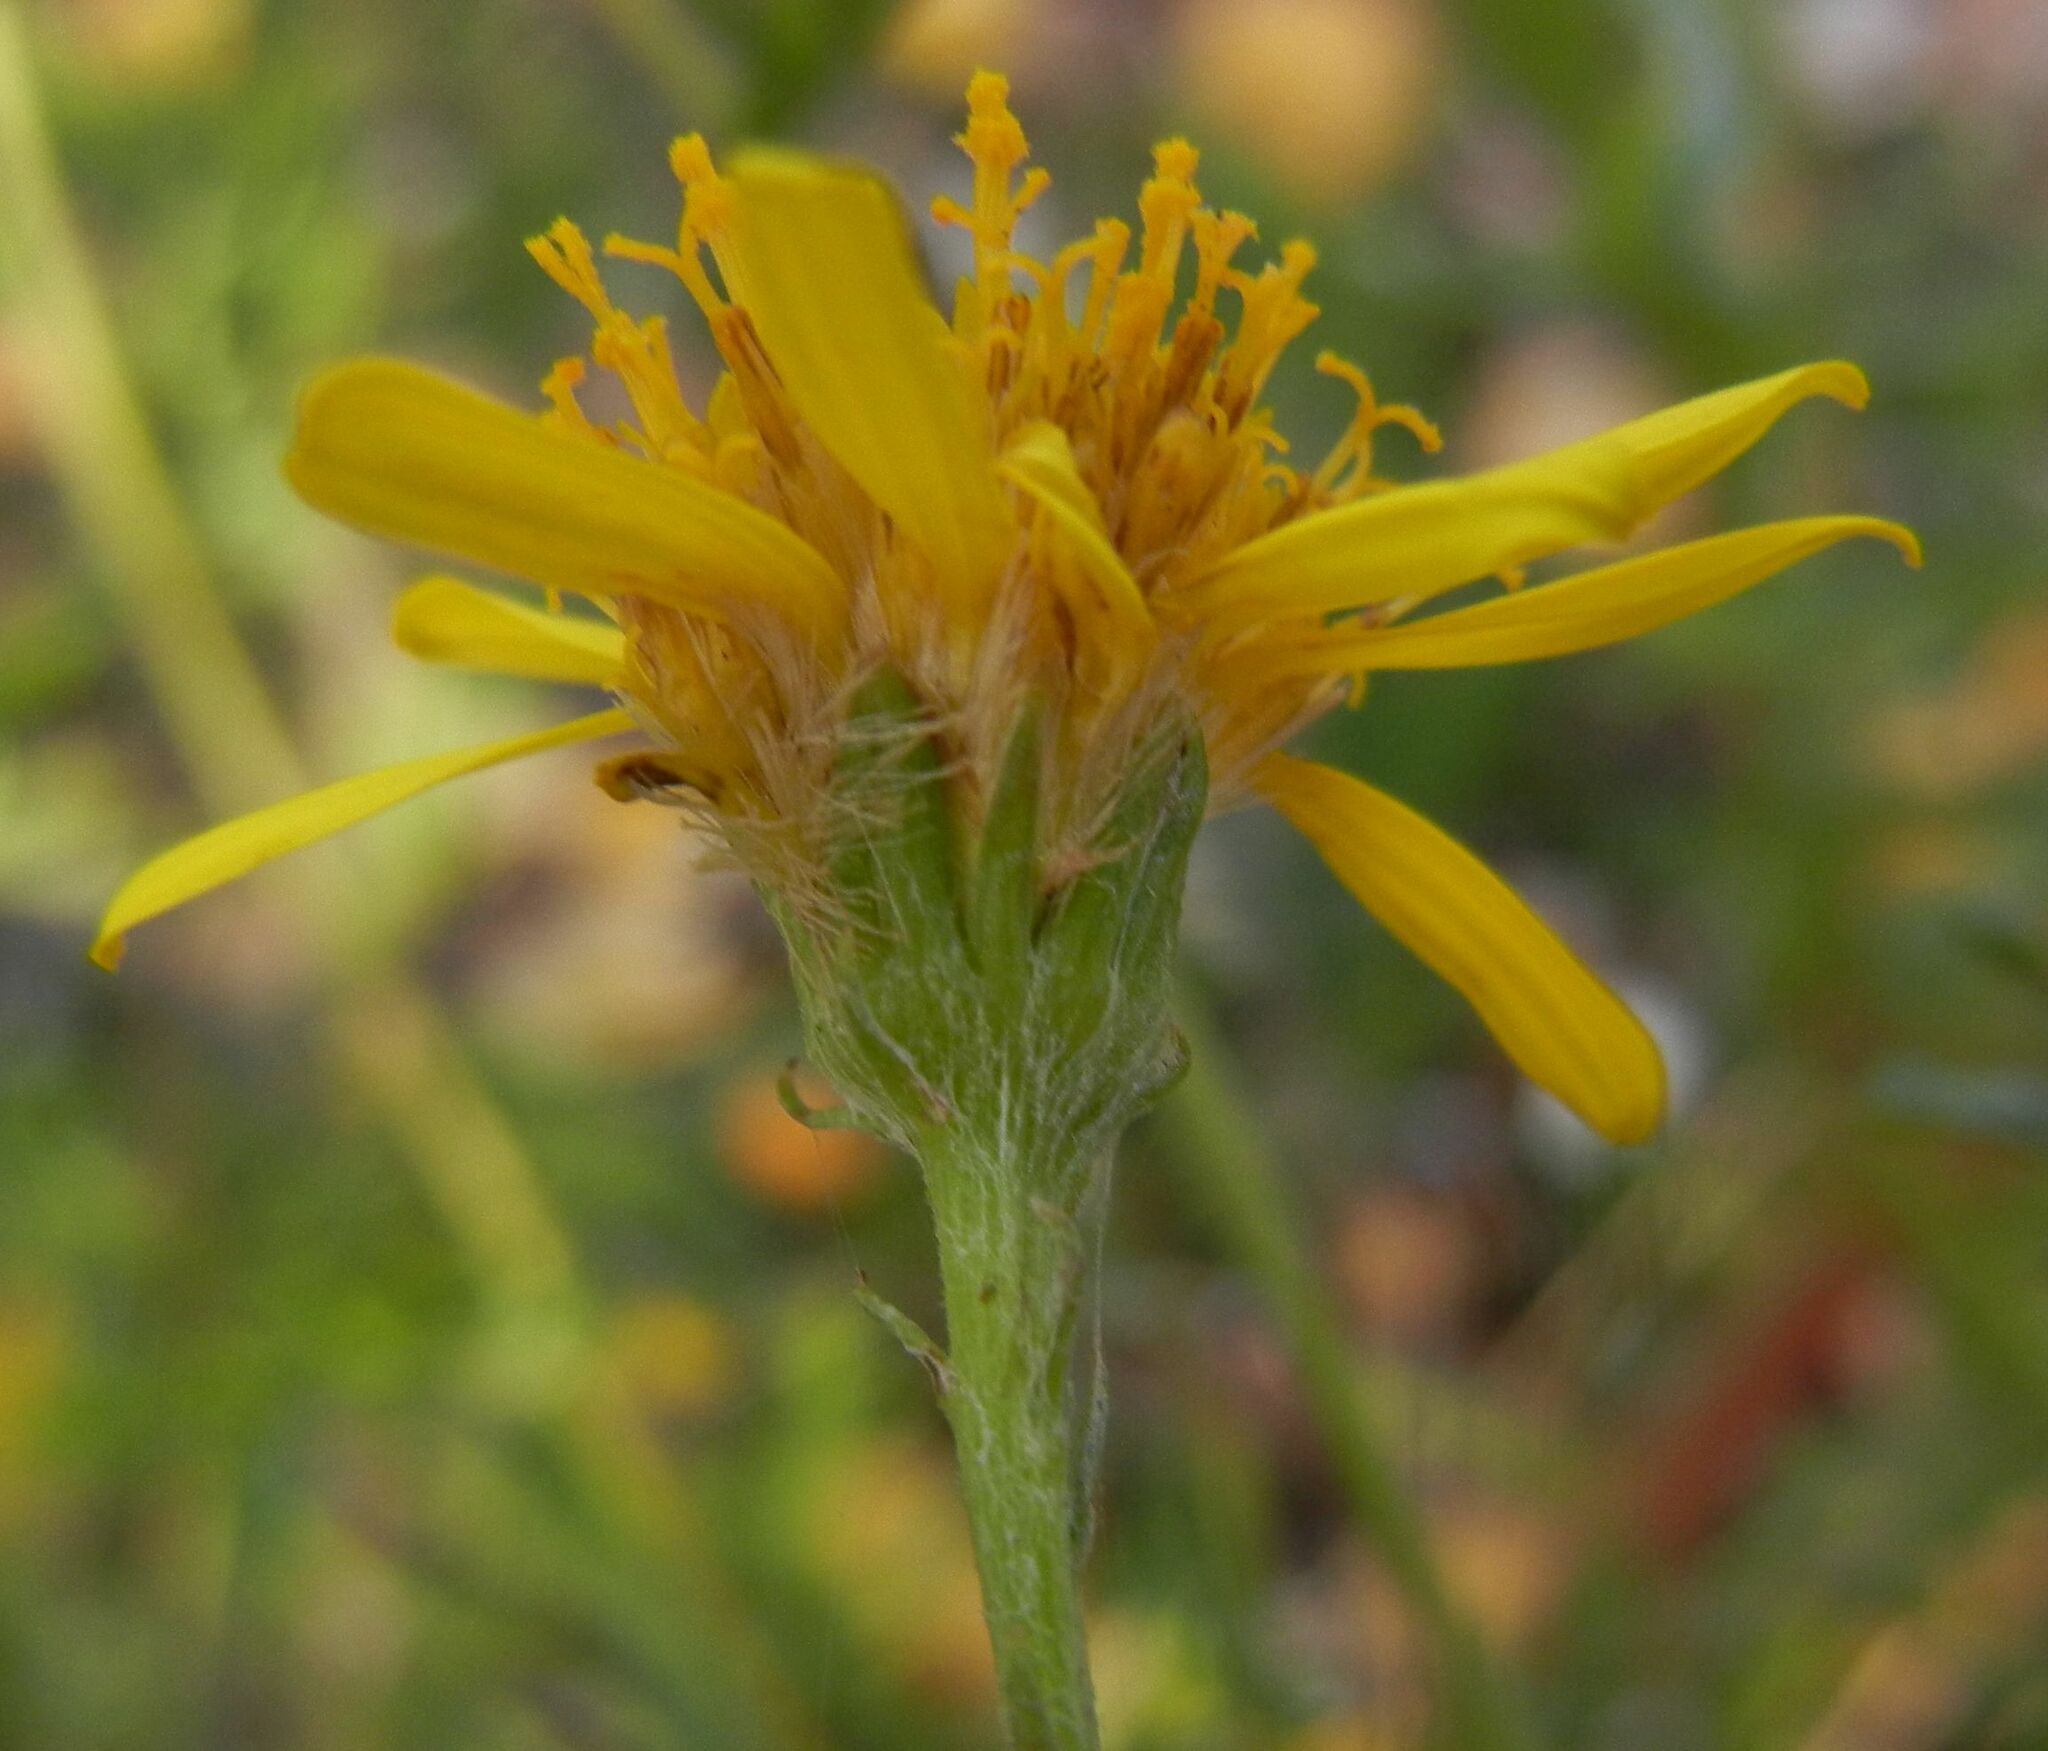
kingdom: Plantae
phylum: Tracheophyta
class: Magnoliopsida
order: Asterales
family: Asteraceae
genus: Jacobaea
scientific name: Jacobaea erucifolia
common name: Hoary ragwort
